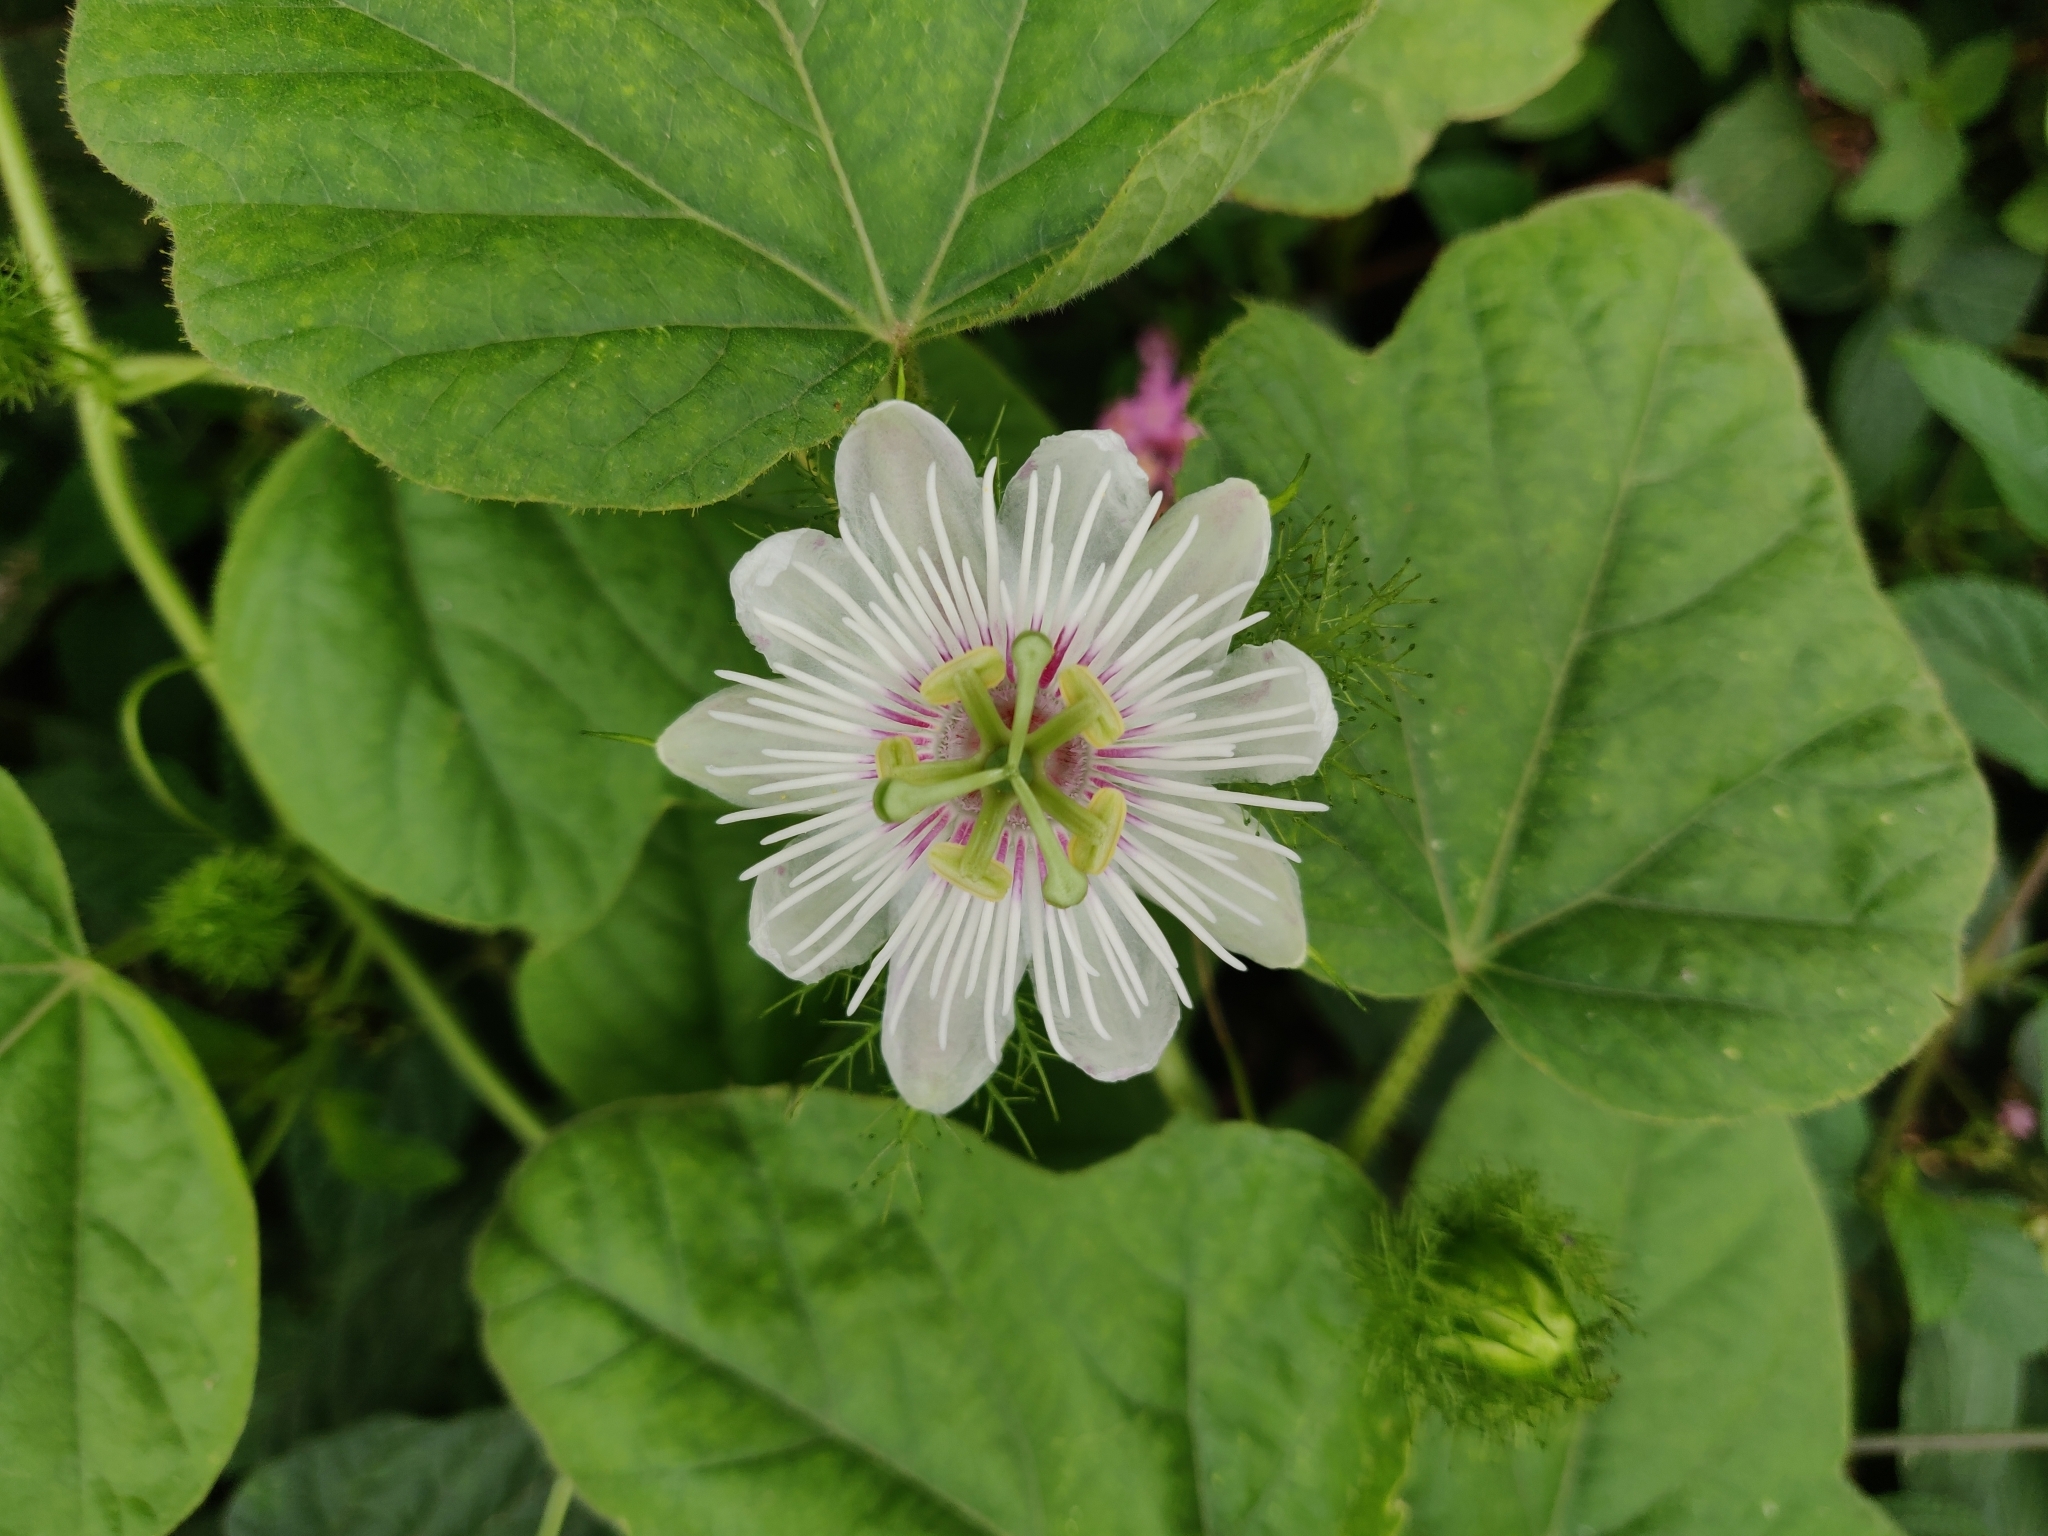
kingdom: Plantae
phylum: Tracheophyta
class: Magnoliopsida
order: Malpighiales
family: Passifloraceae
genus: Passiflora
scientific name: Passiflora foetida
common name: Fetid passionflower
